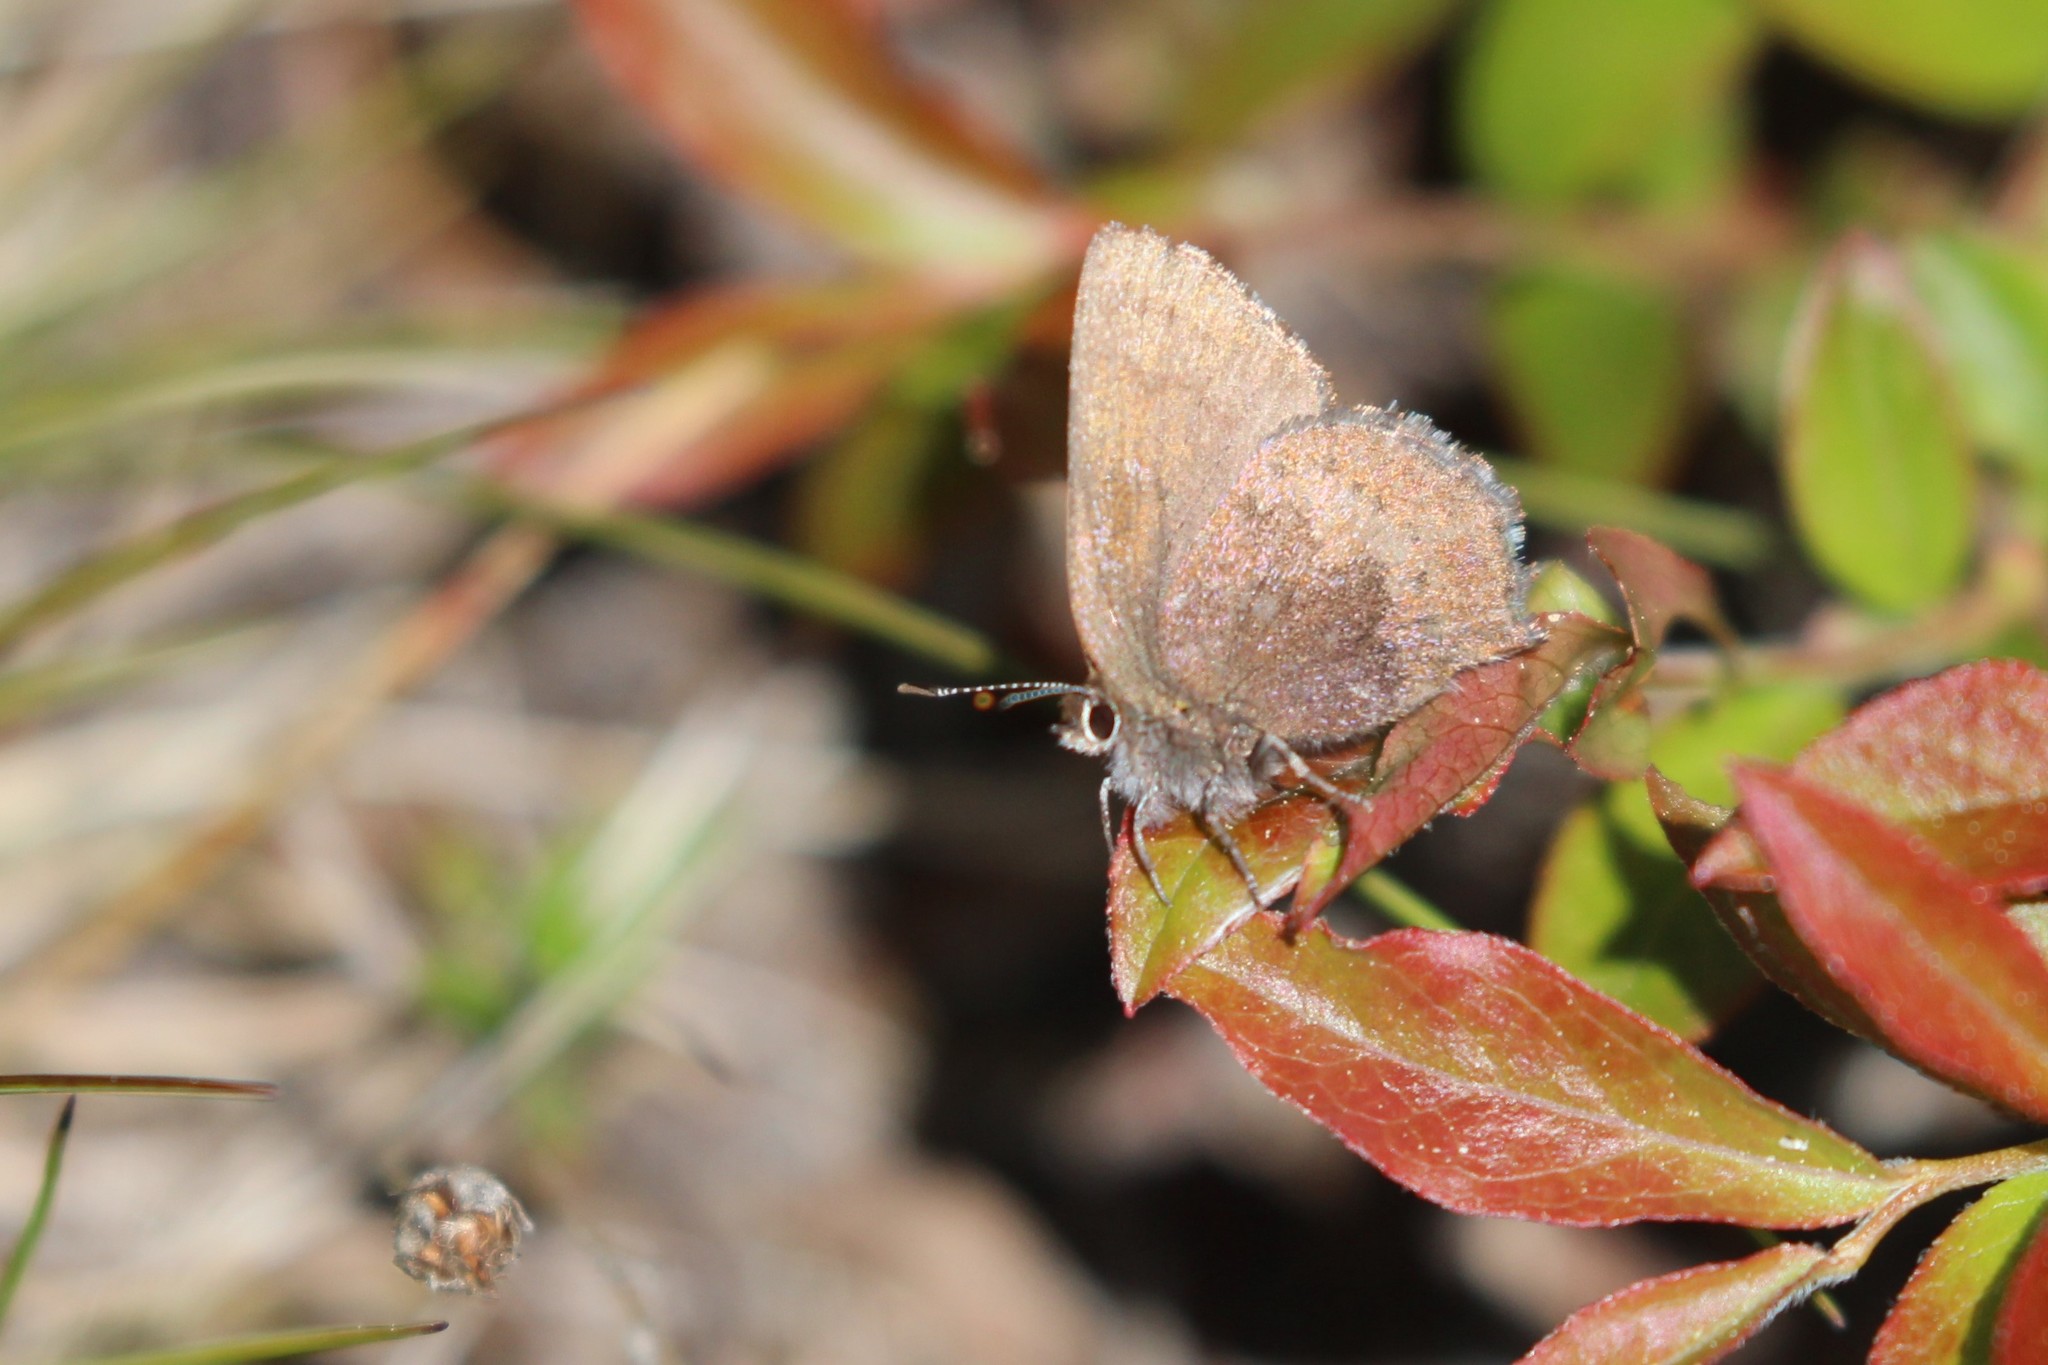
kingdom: Animalia
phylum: Arthropoda
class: Insecta
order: Lepidoptera
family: Lycaenidae
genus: Incisalia
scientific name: Incisalia irioides
